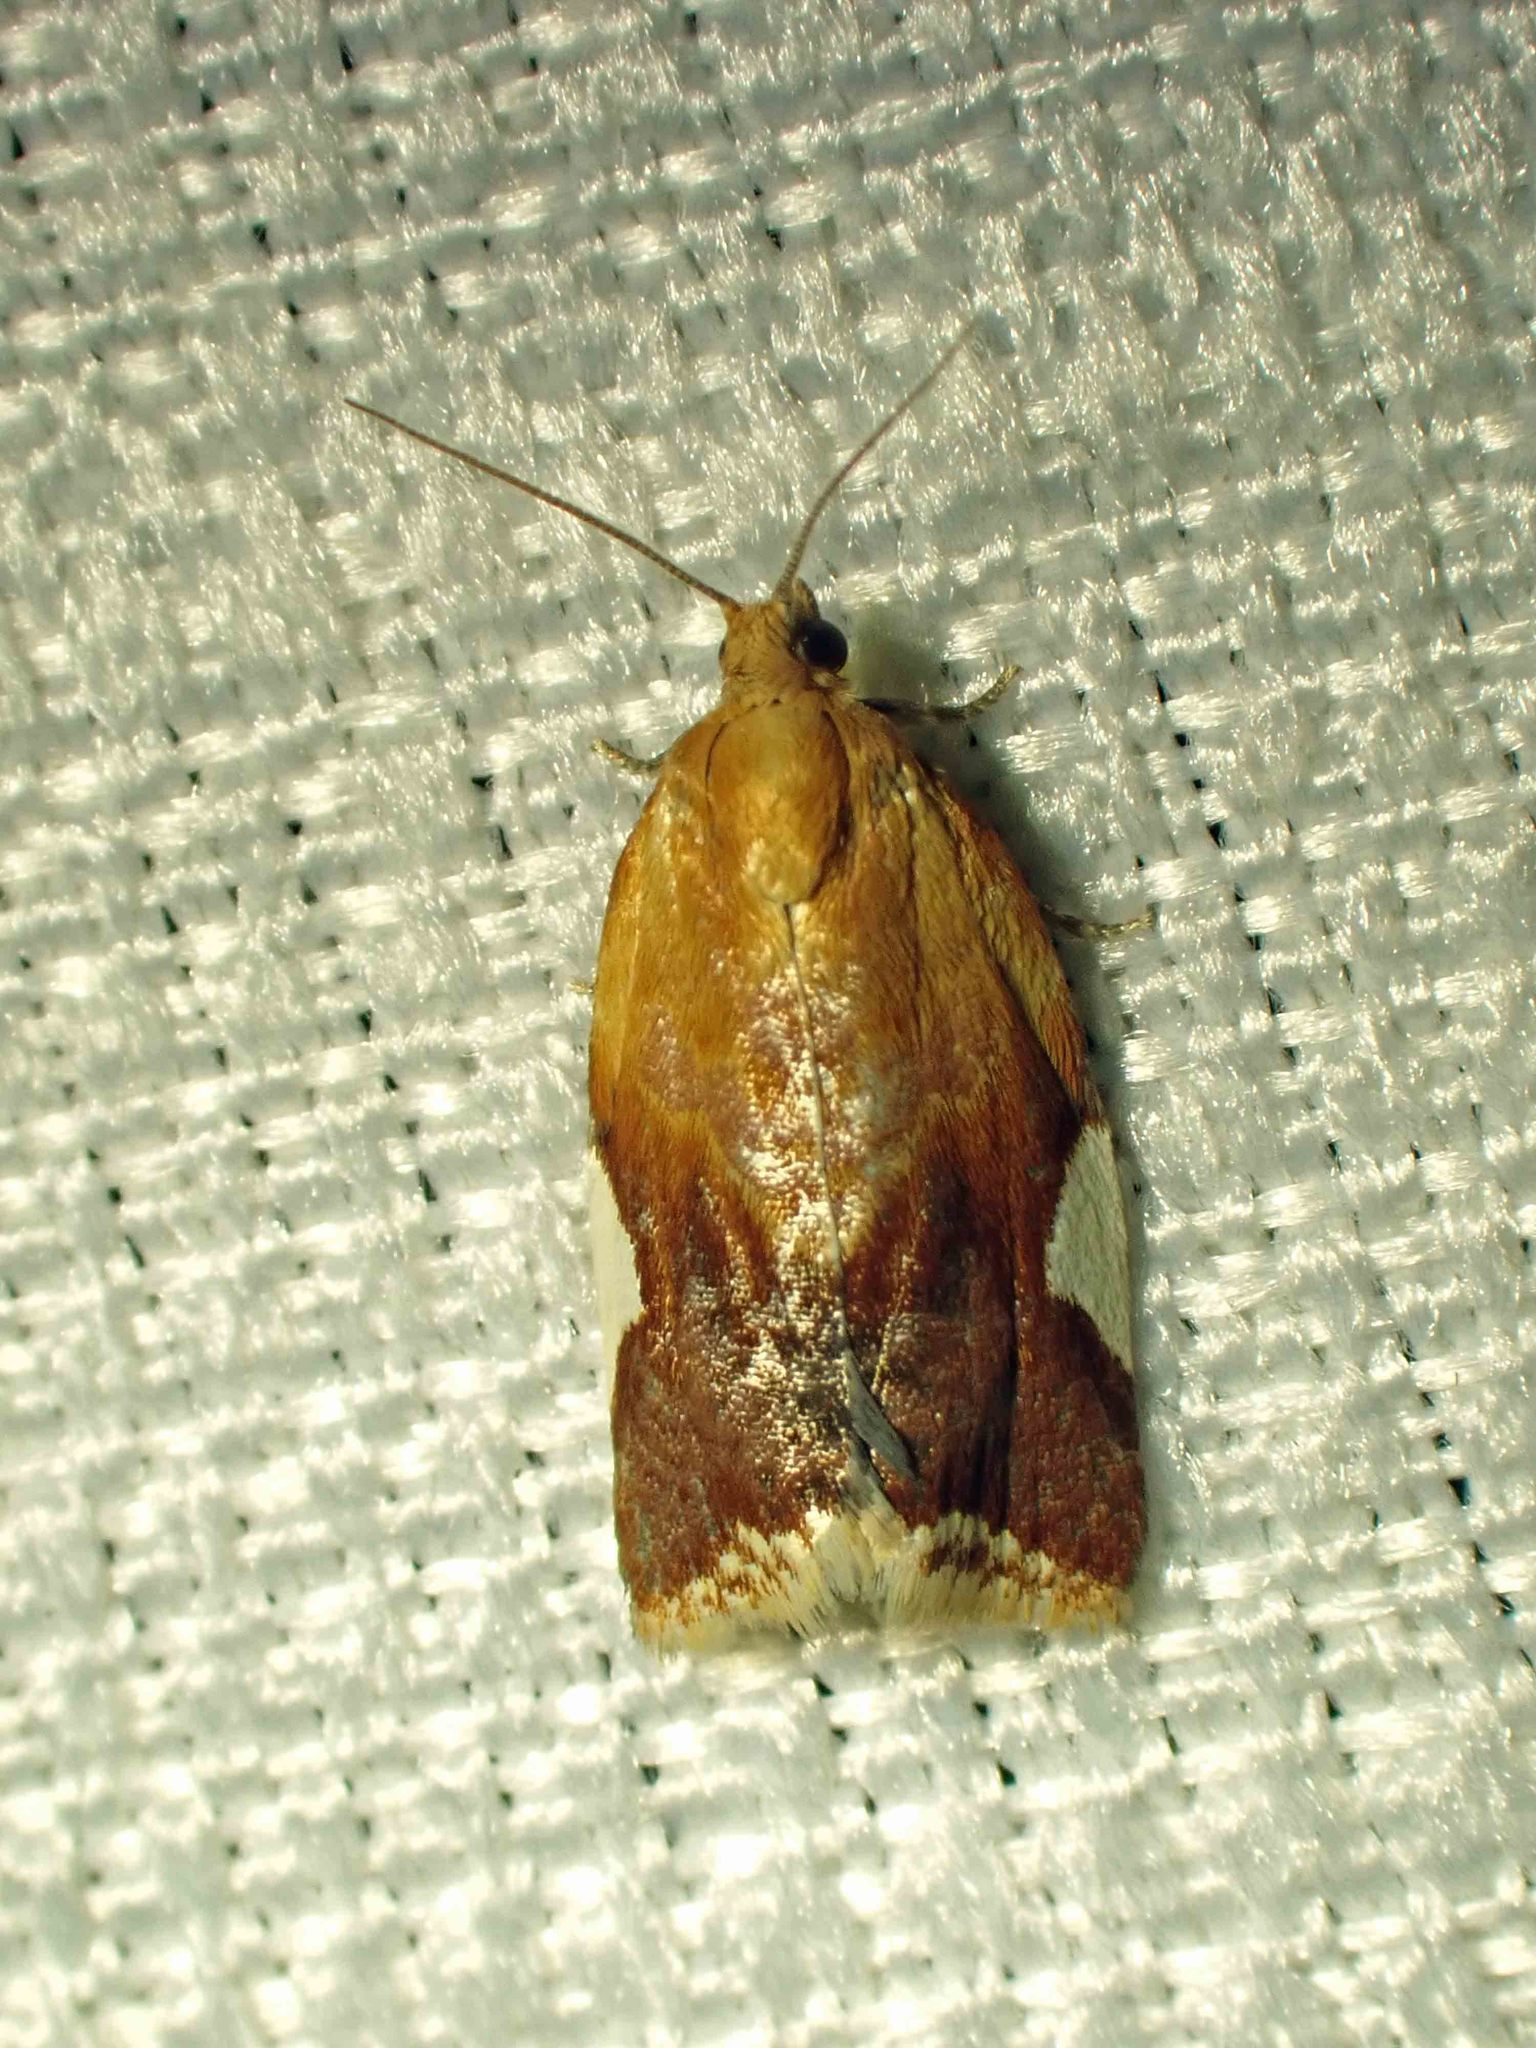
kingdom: Animalia
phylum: Arthropoda
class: Insecta
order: Lepidoptera
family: Tortricidae
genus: Clepsis
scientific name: Clepsis persicana
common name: White triangle tortrix
